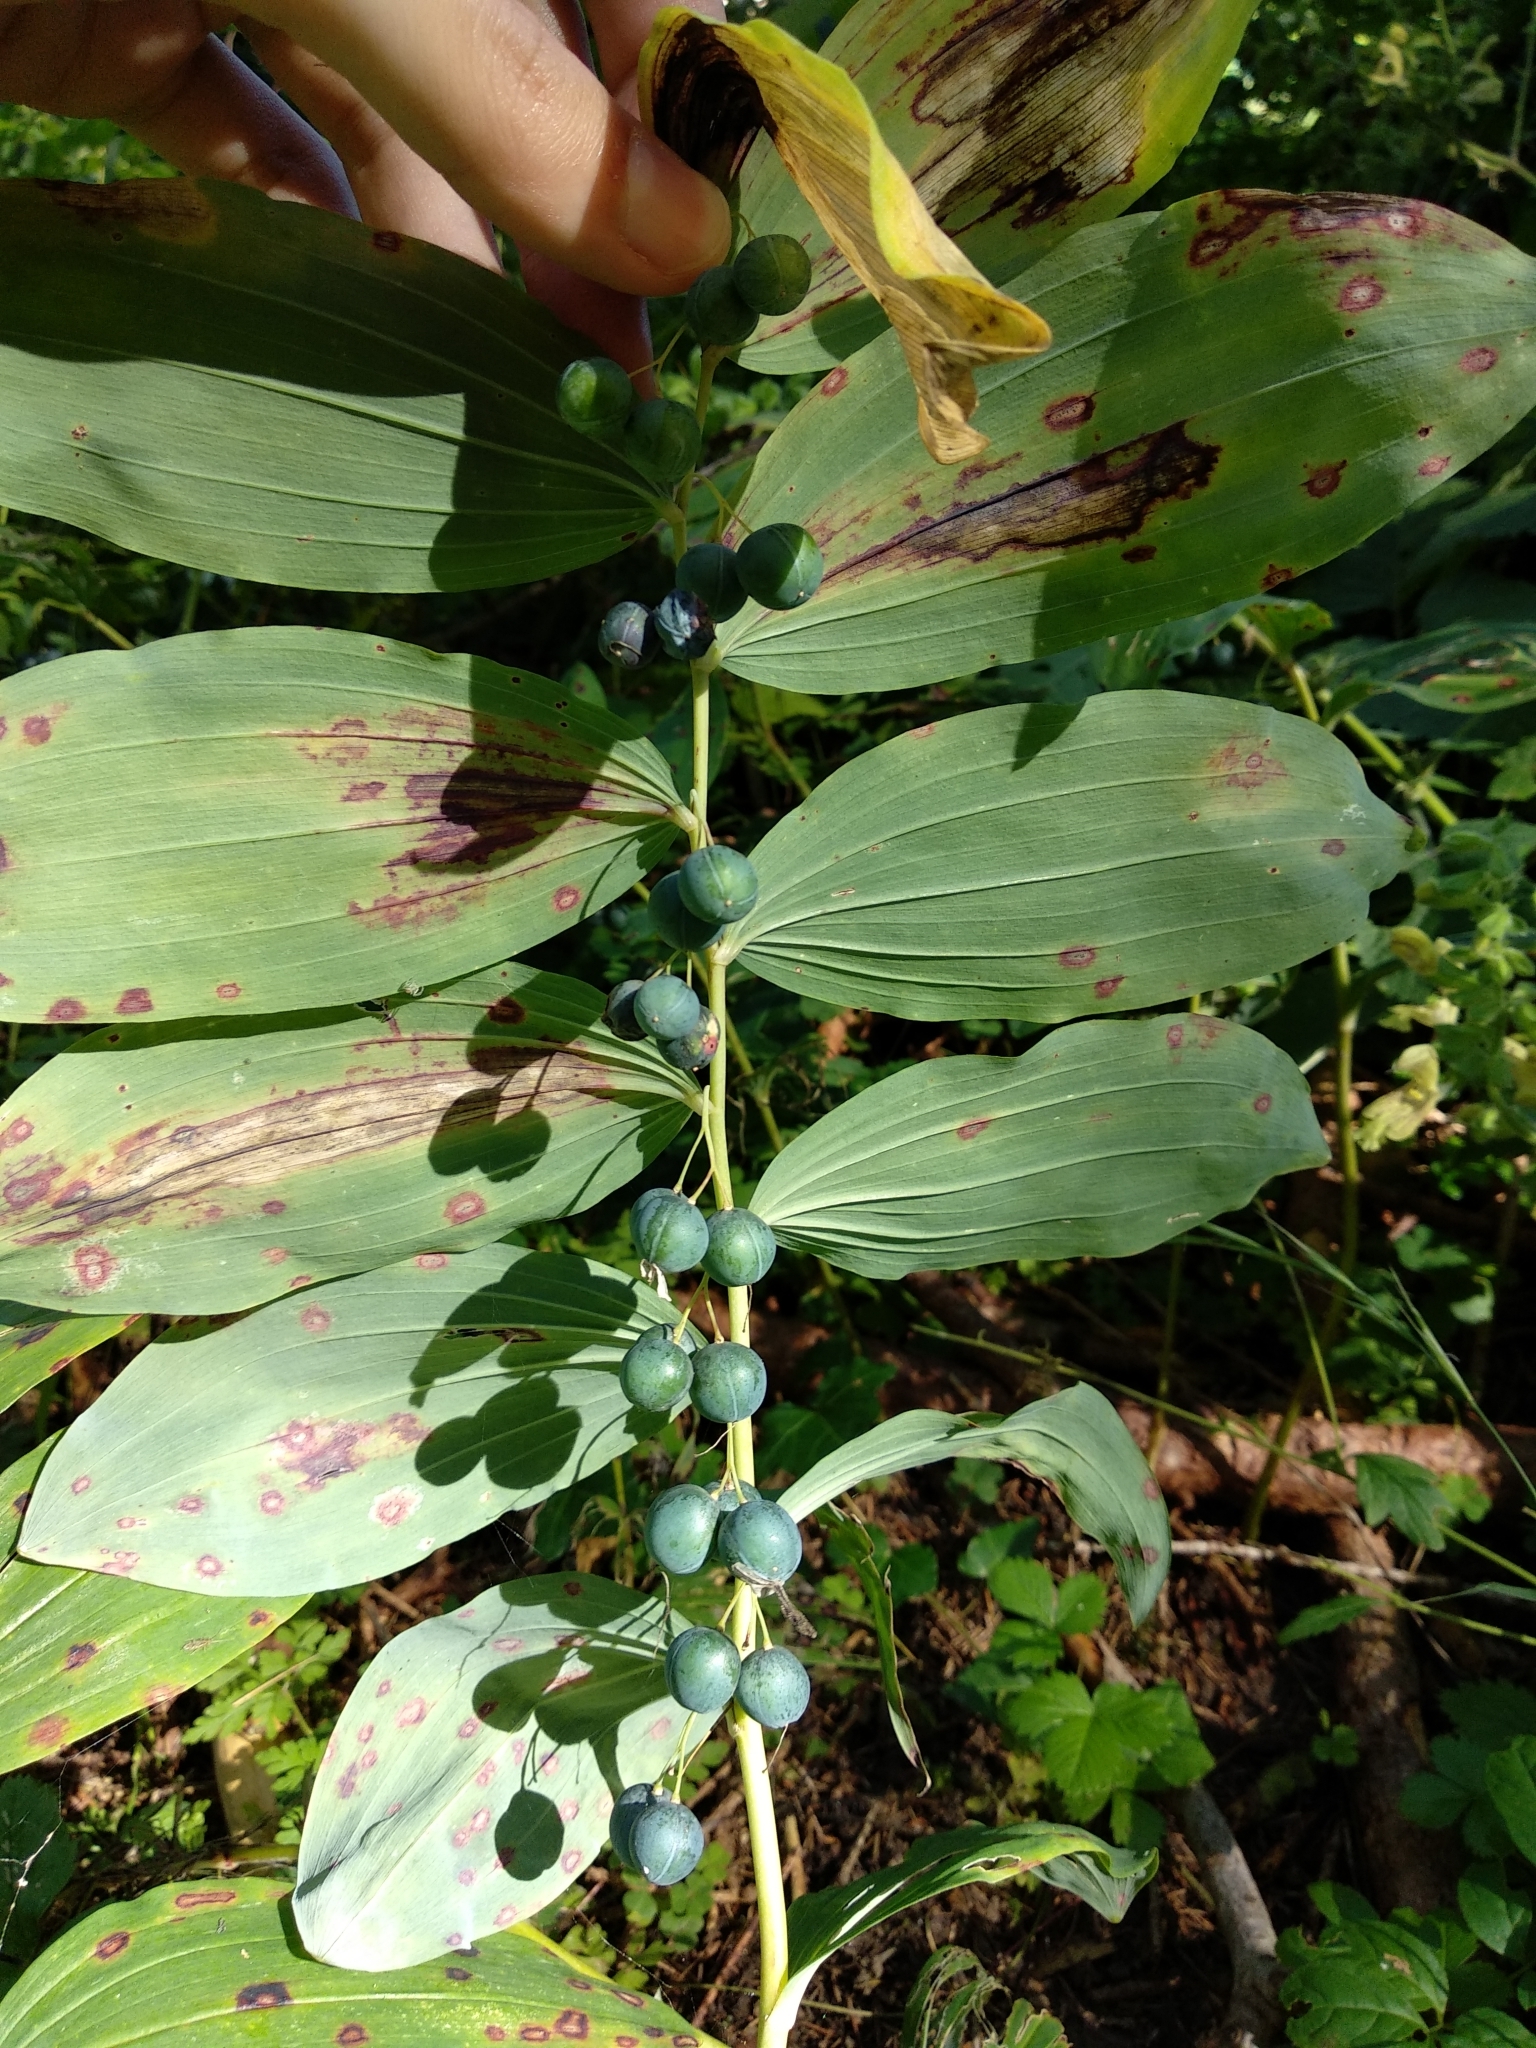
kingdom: Plantae
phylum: Tracheophyta
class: Liliopsida
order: Asparagales
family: Asparagaceae
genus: Polygonatum
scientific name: Polygonatum multiflorum
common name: Solomon's-seal
